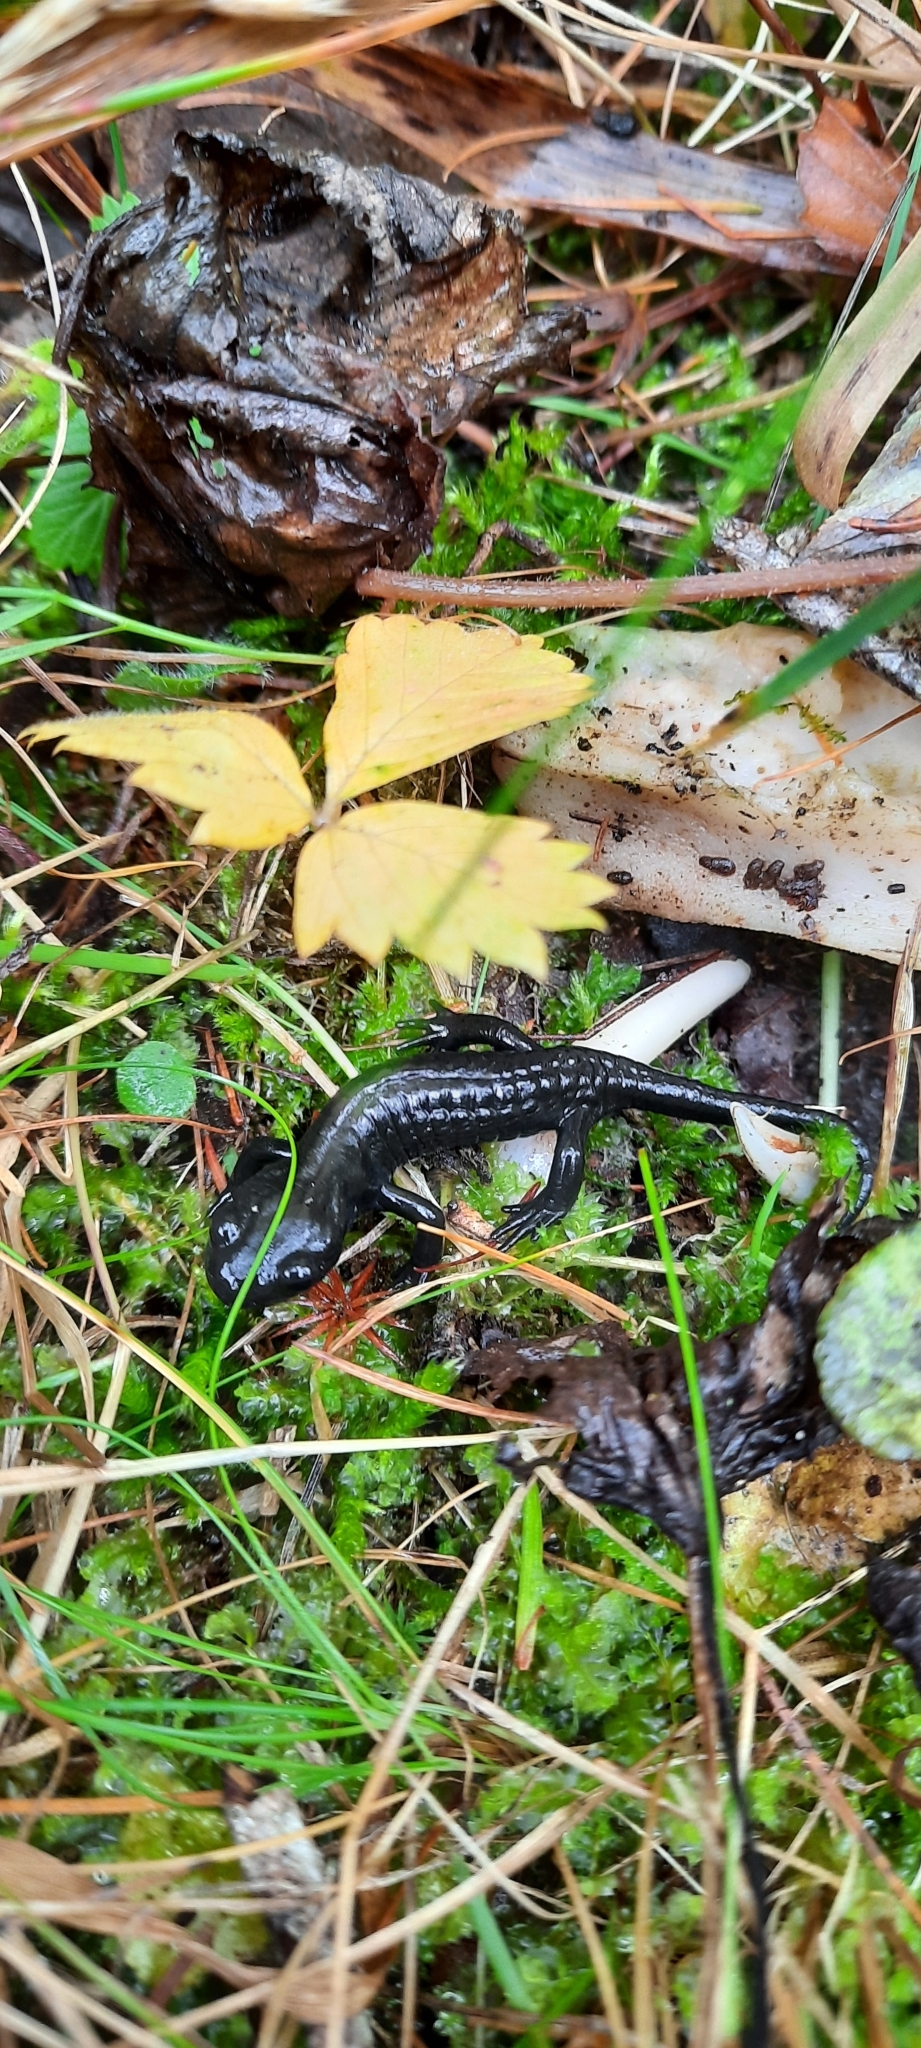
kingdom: Animalia
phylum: Chordata
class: Amphibia
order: Caudata
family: Salamandridae
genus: Salamandra
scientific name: Salamandra atra
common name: Alpine salamander
